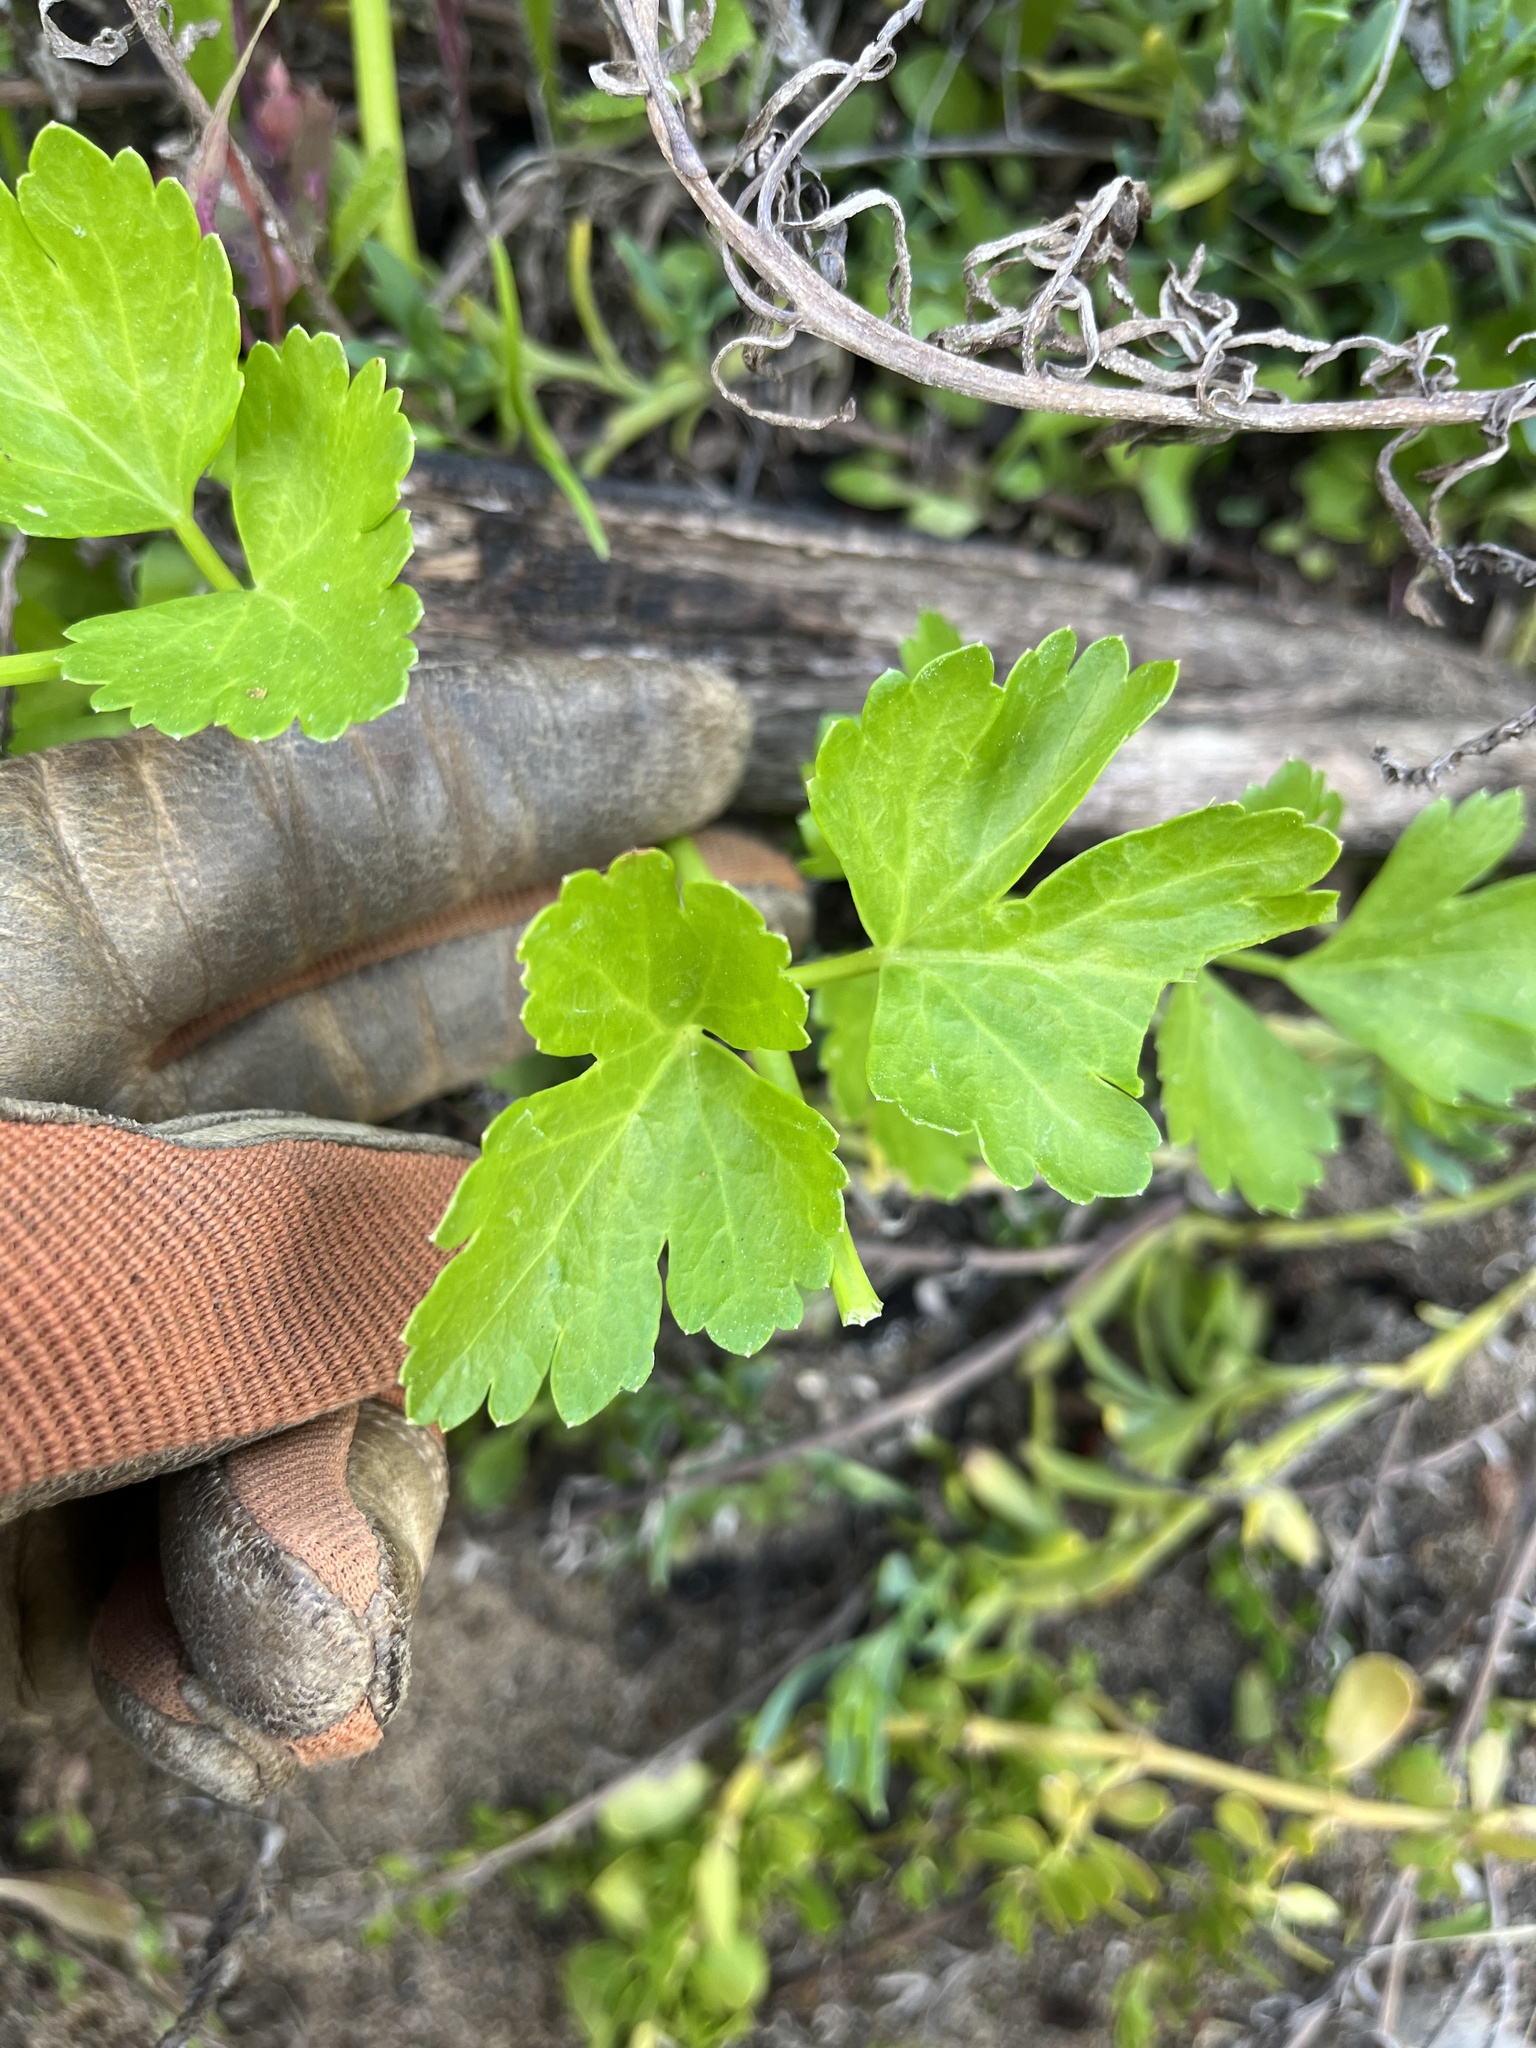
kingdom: Plantae
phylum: Tracheophyta
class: Magnoliopsida
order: Apiales
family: Apiaceae
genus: Apium
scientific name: Apium graveolens
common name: Wild celery
